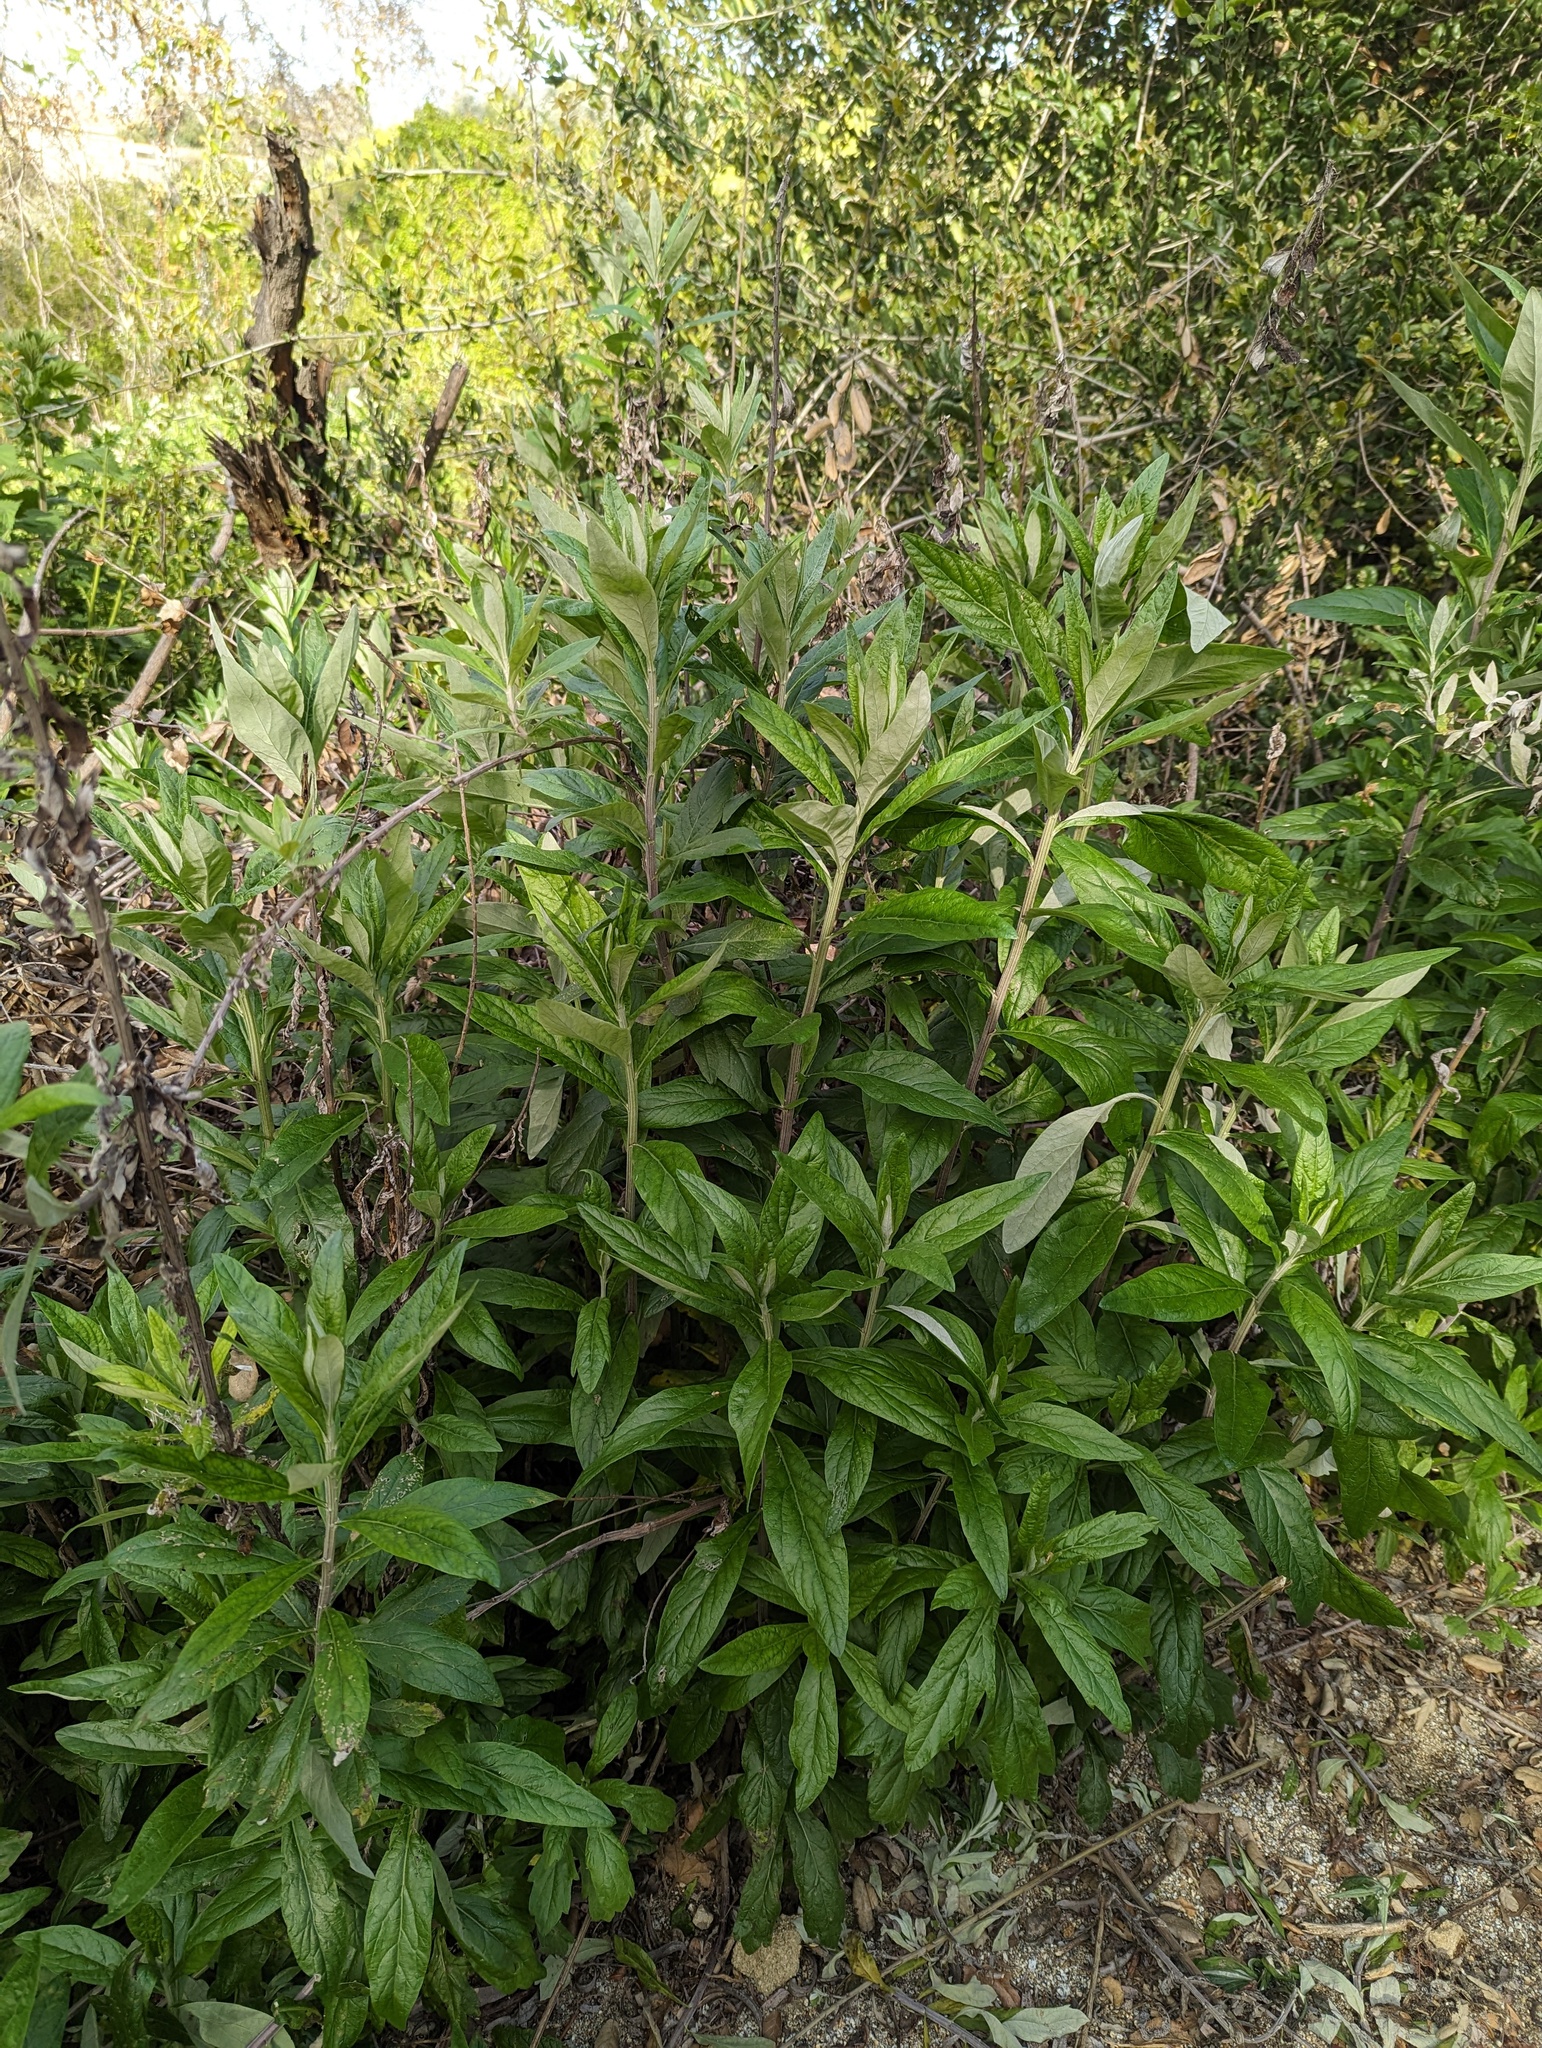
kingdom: Plantae
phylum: Tracheophyta
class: Magnoliopsida
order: Asterales
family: Asteraceae
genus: Artemisia
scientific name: Artemisia douglasiana
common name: Northwest mugwort
